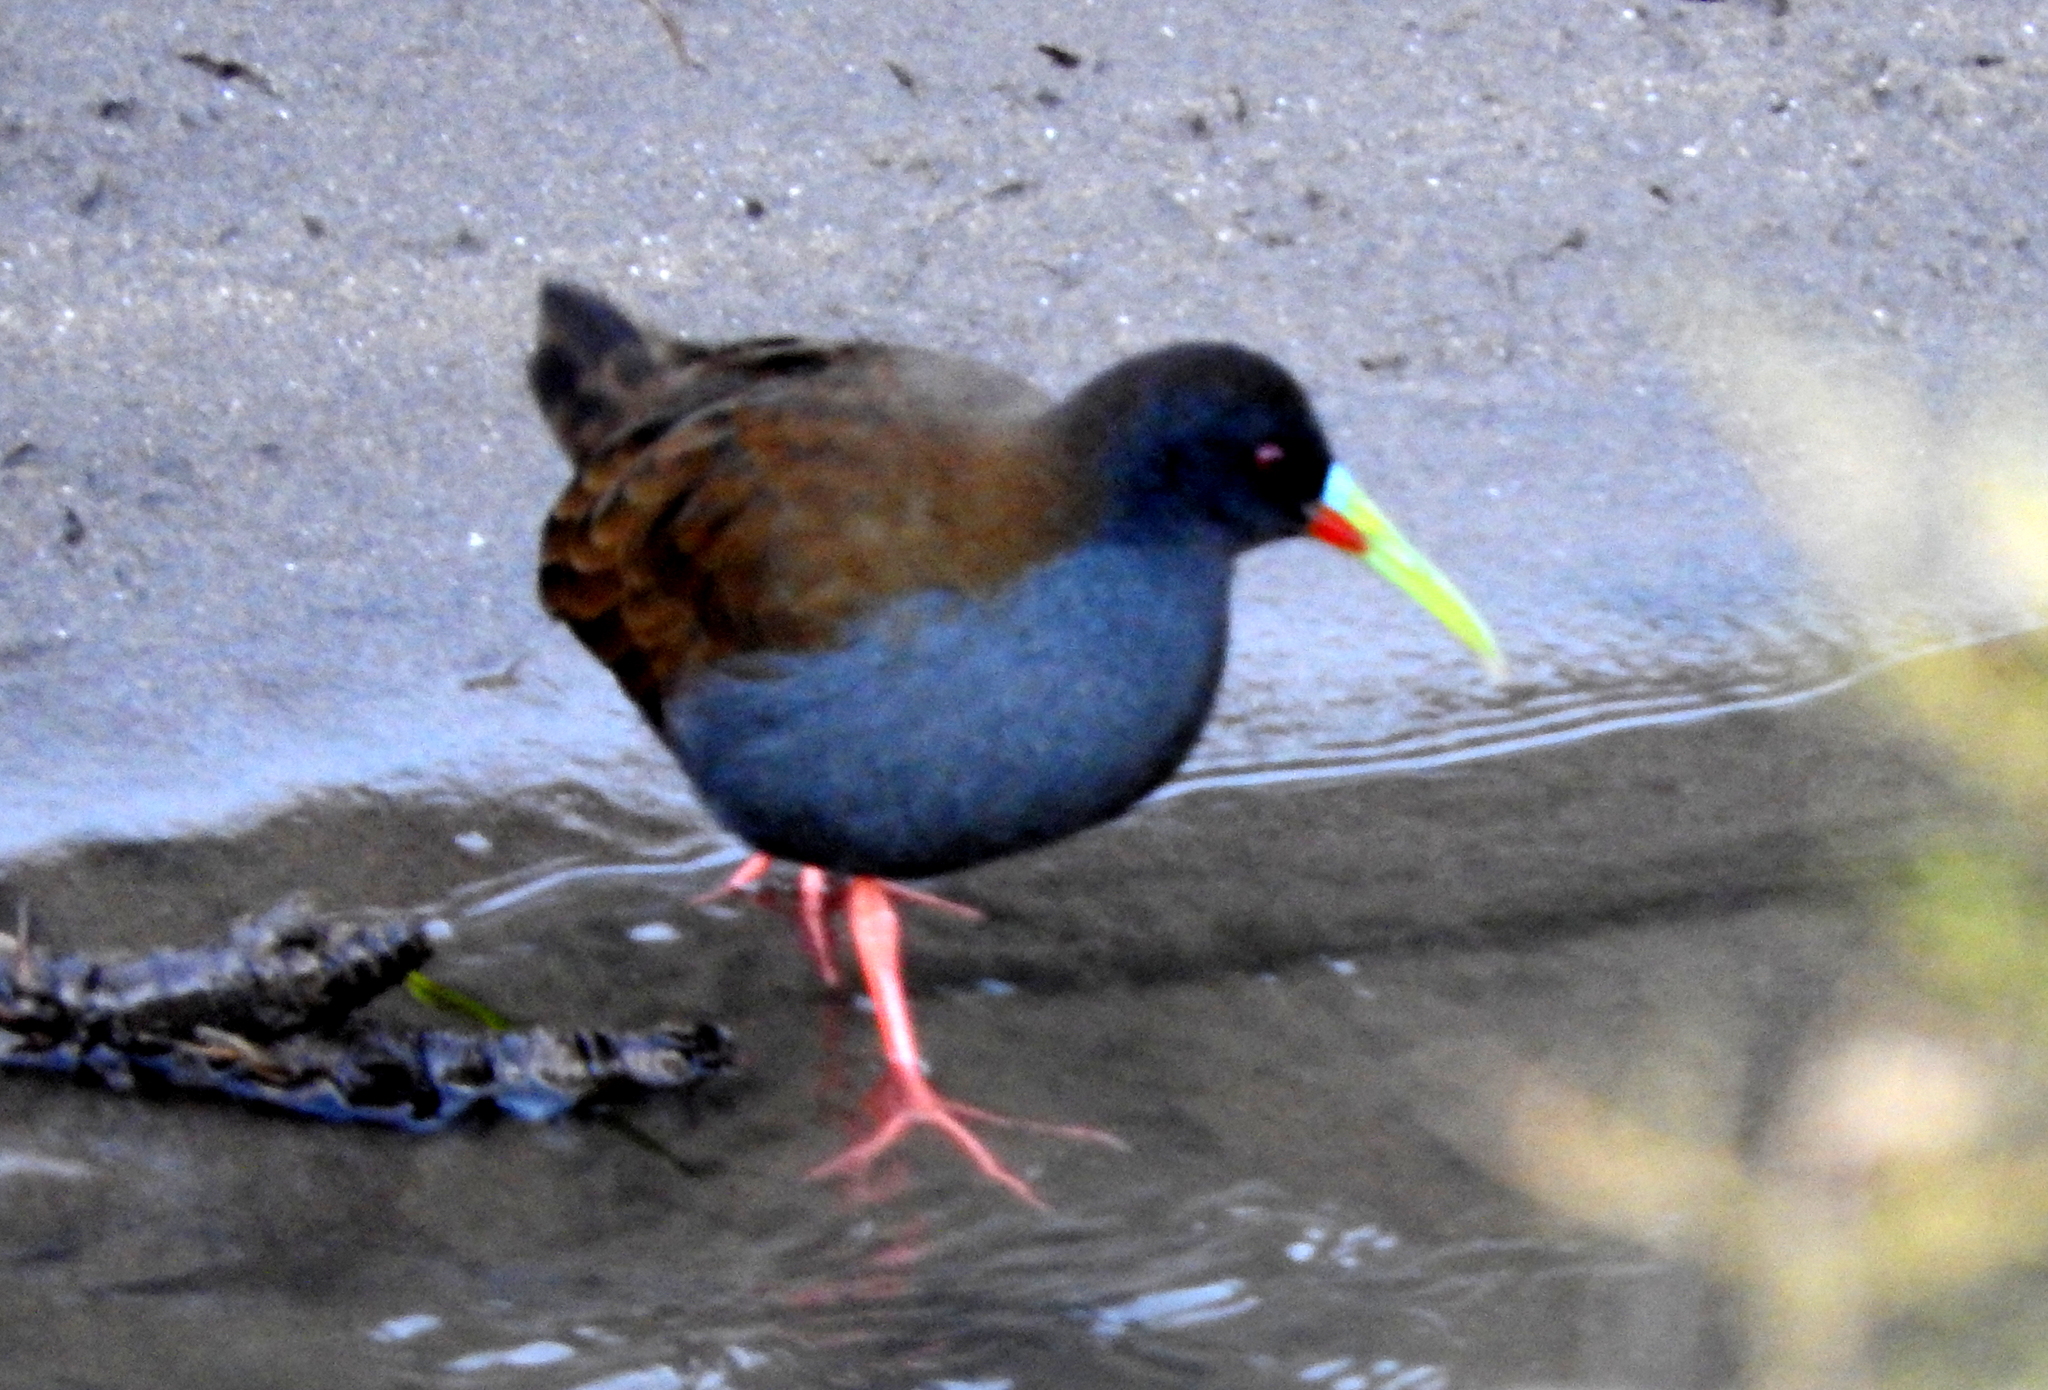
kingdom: Animalia
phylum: Chordata
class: Aves
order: Gruiformes
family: Rallidae
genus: Pardirallus
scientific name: Pardirallus sanguinolentus
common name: Plumbeous rail
